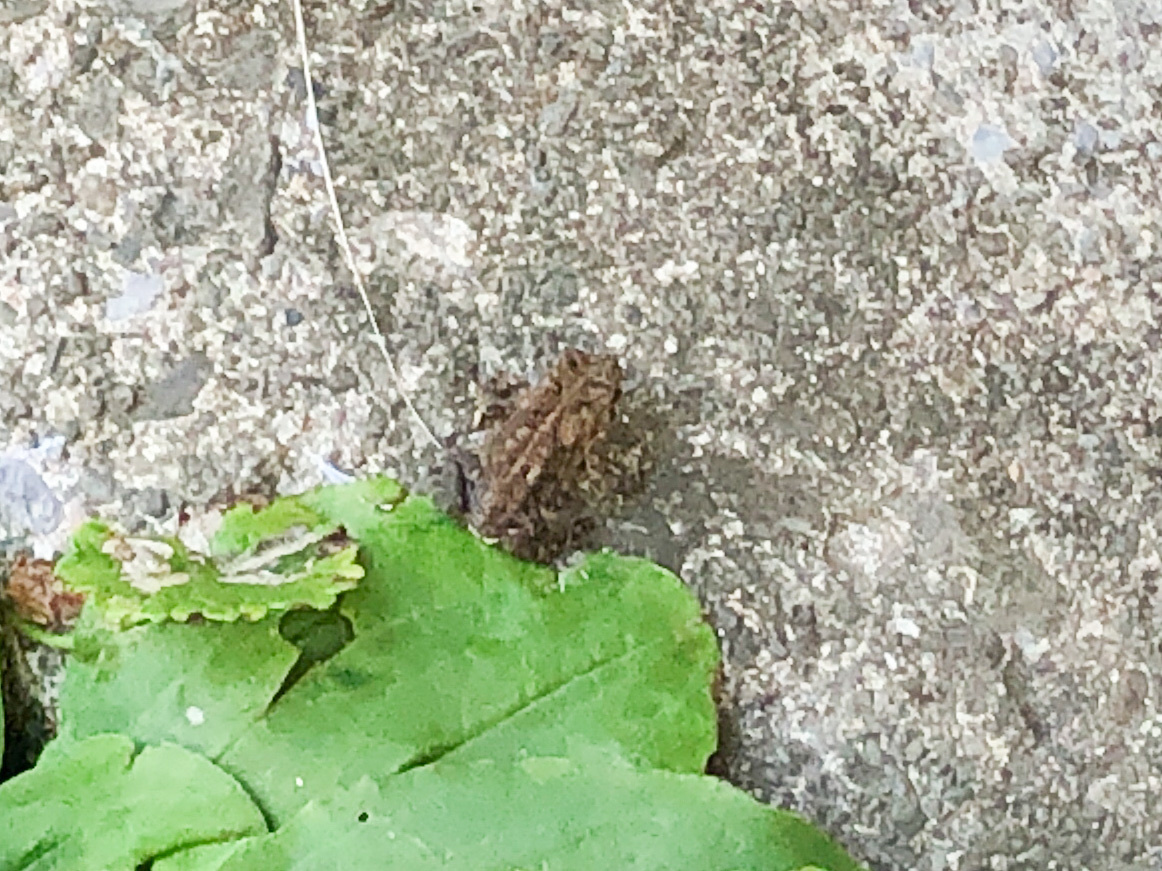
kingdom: Animalia
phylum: Chordata
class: Amphibia
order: Anura
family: Bufonidae
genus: Anaxyrus
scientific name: Anaxyrus americanus
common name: American toad
